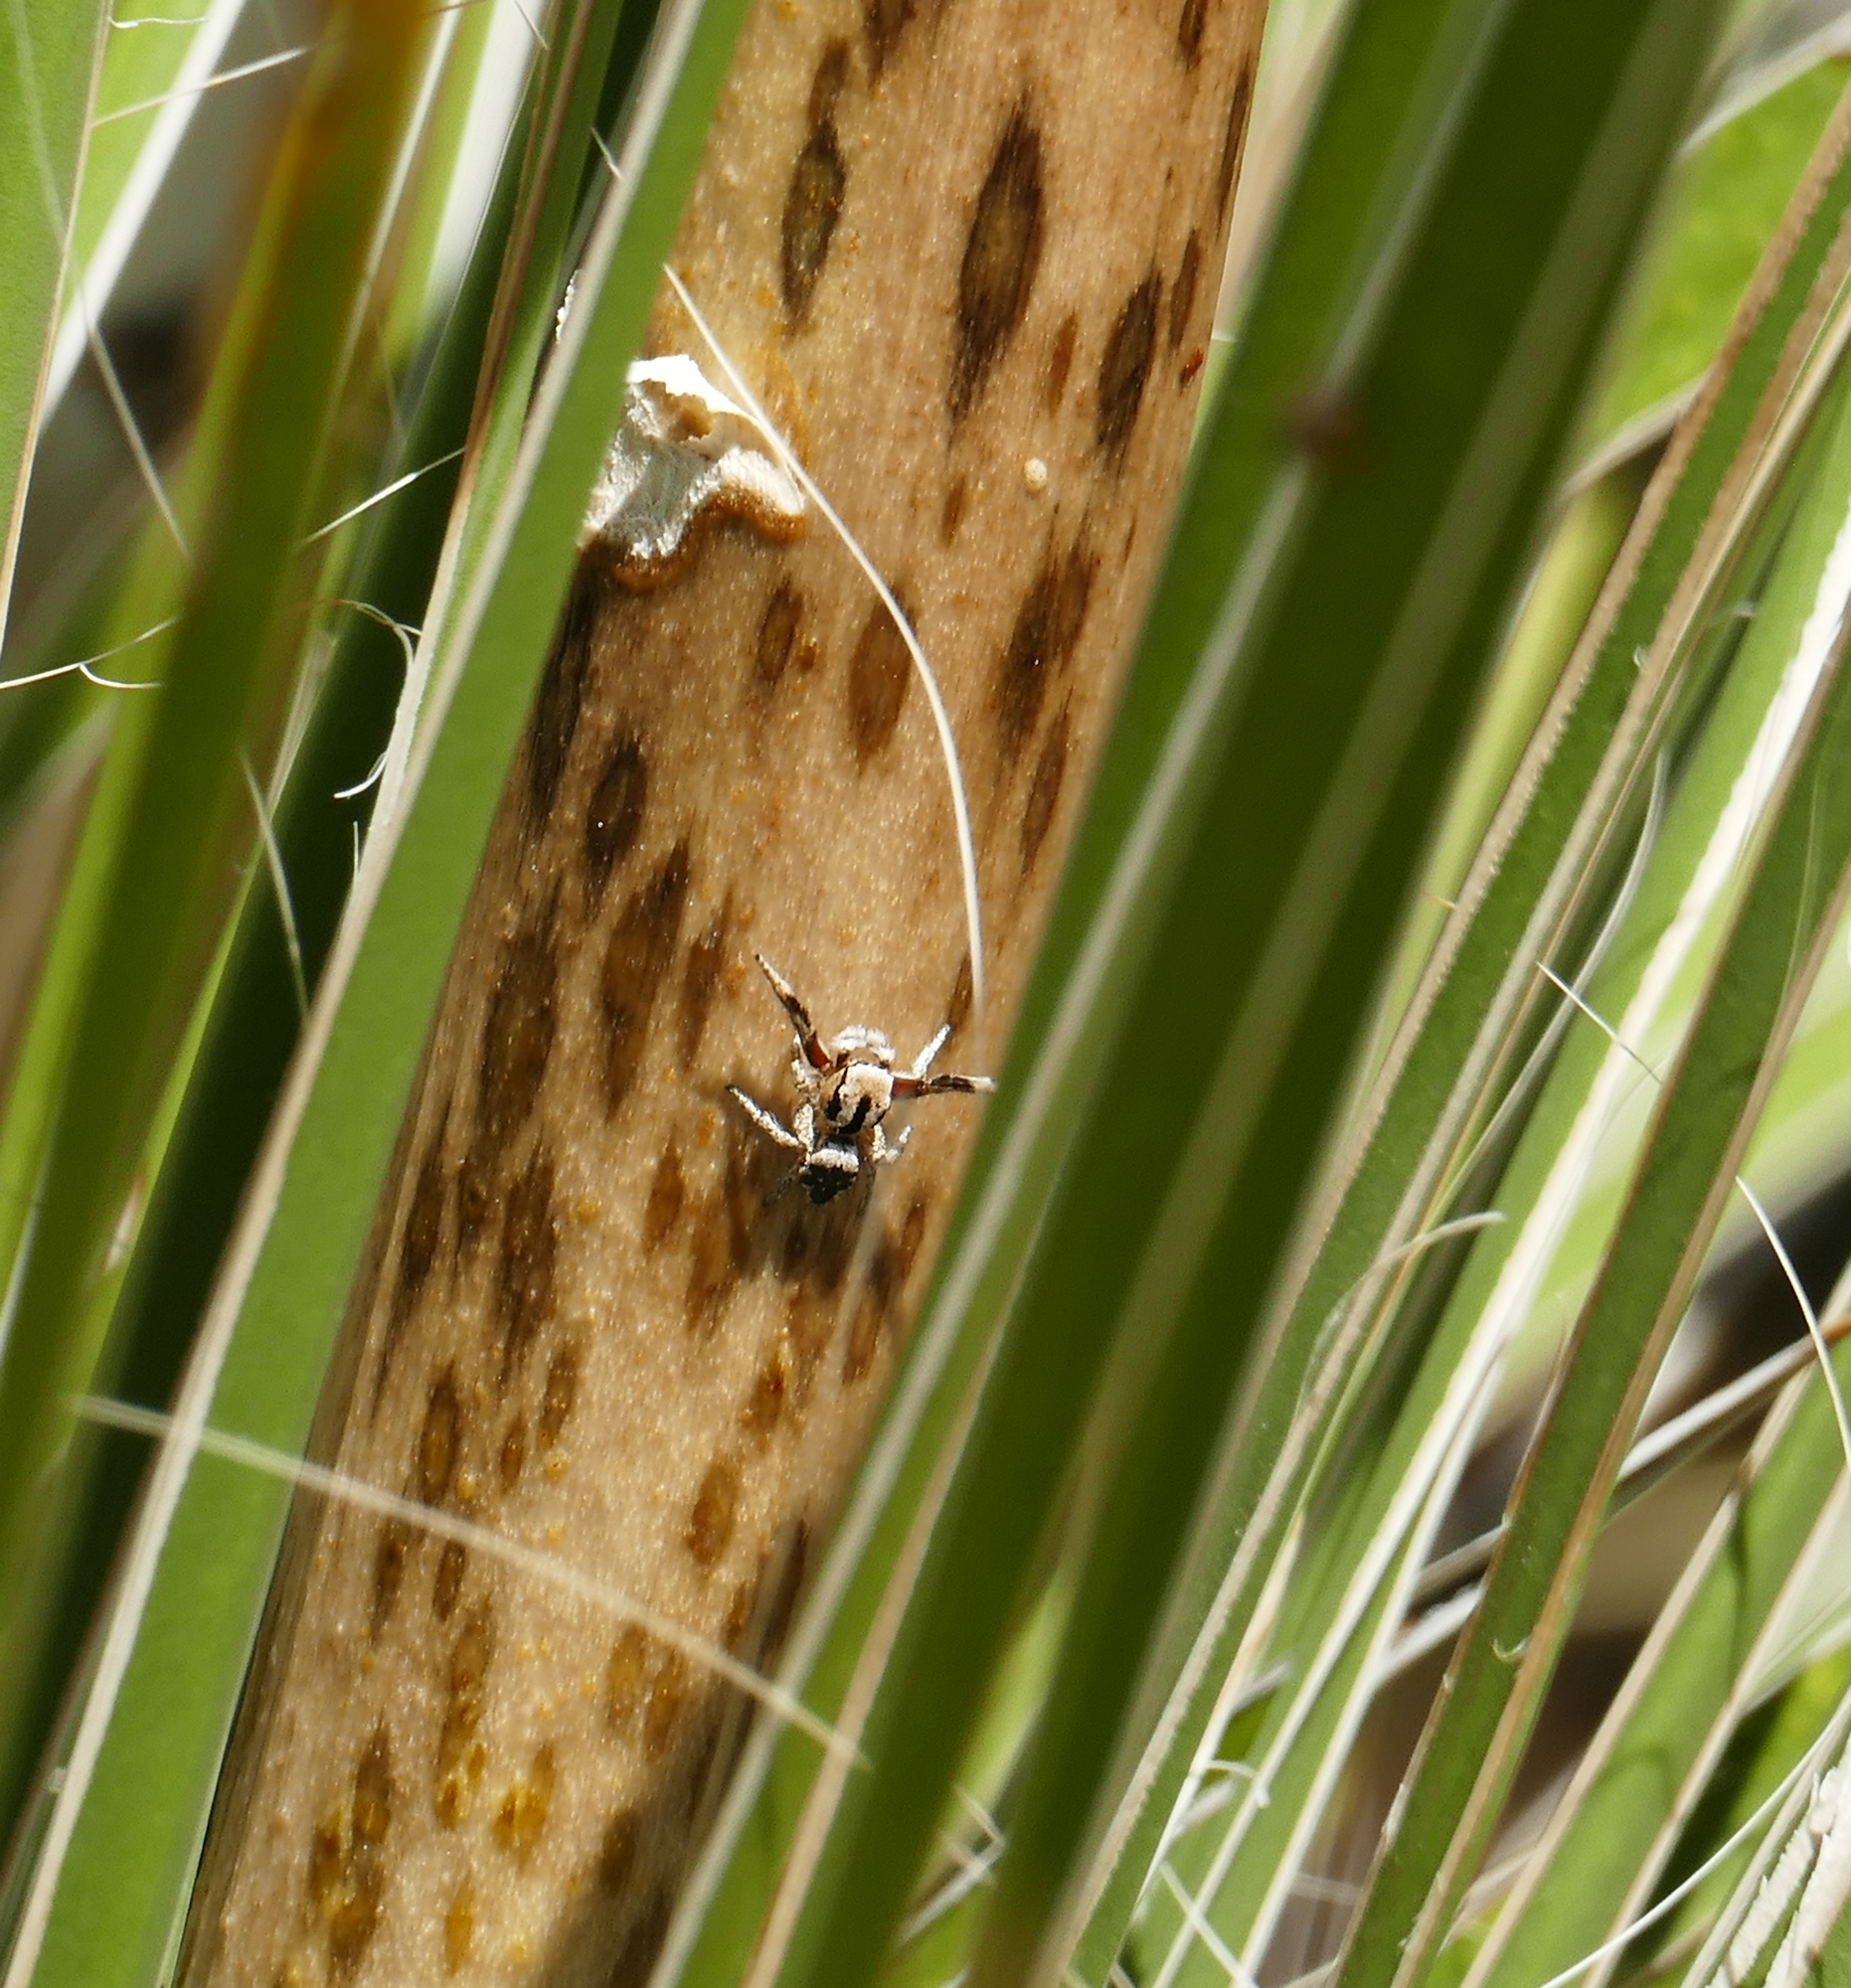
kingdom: Animalia
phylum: Arthropoda
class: Arachnida
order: Araneae
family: Salticidae
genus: Habronattus
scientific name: Habronattus tranquillus
